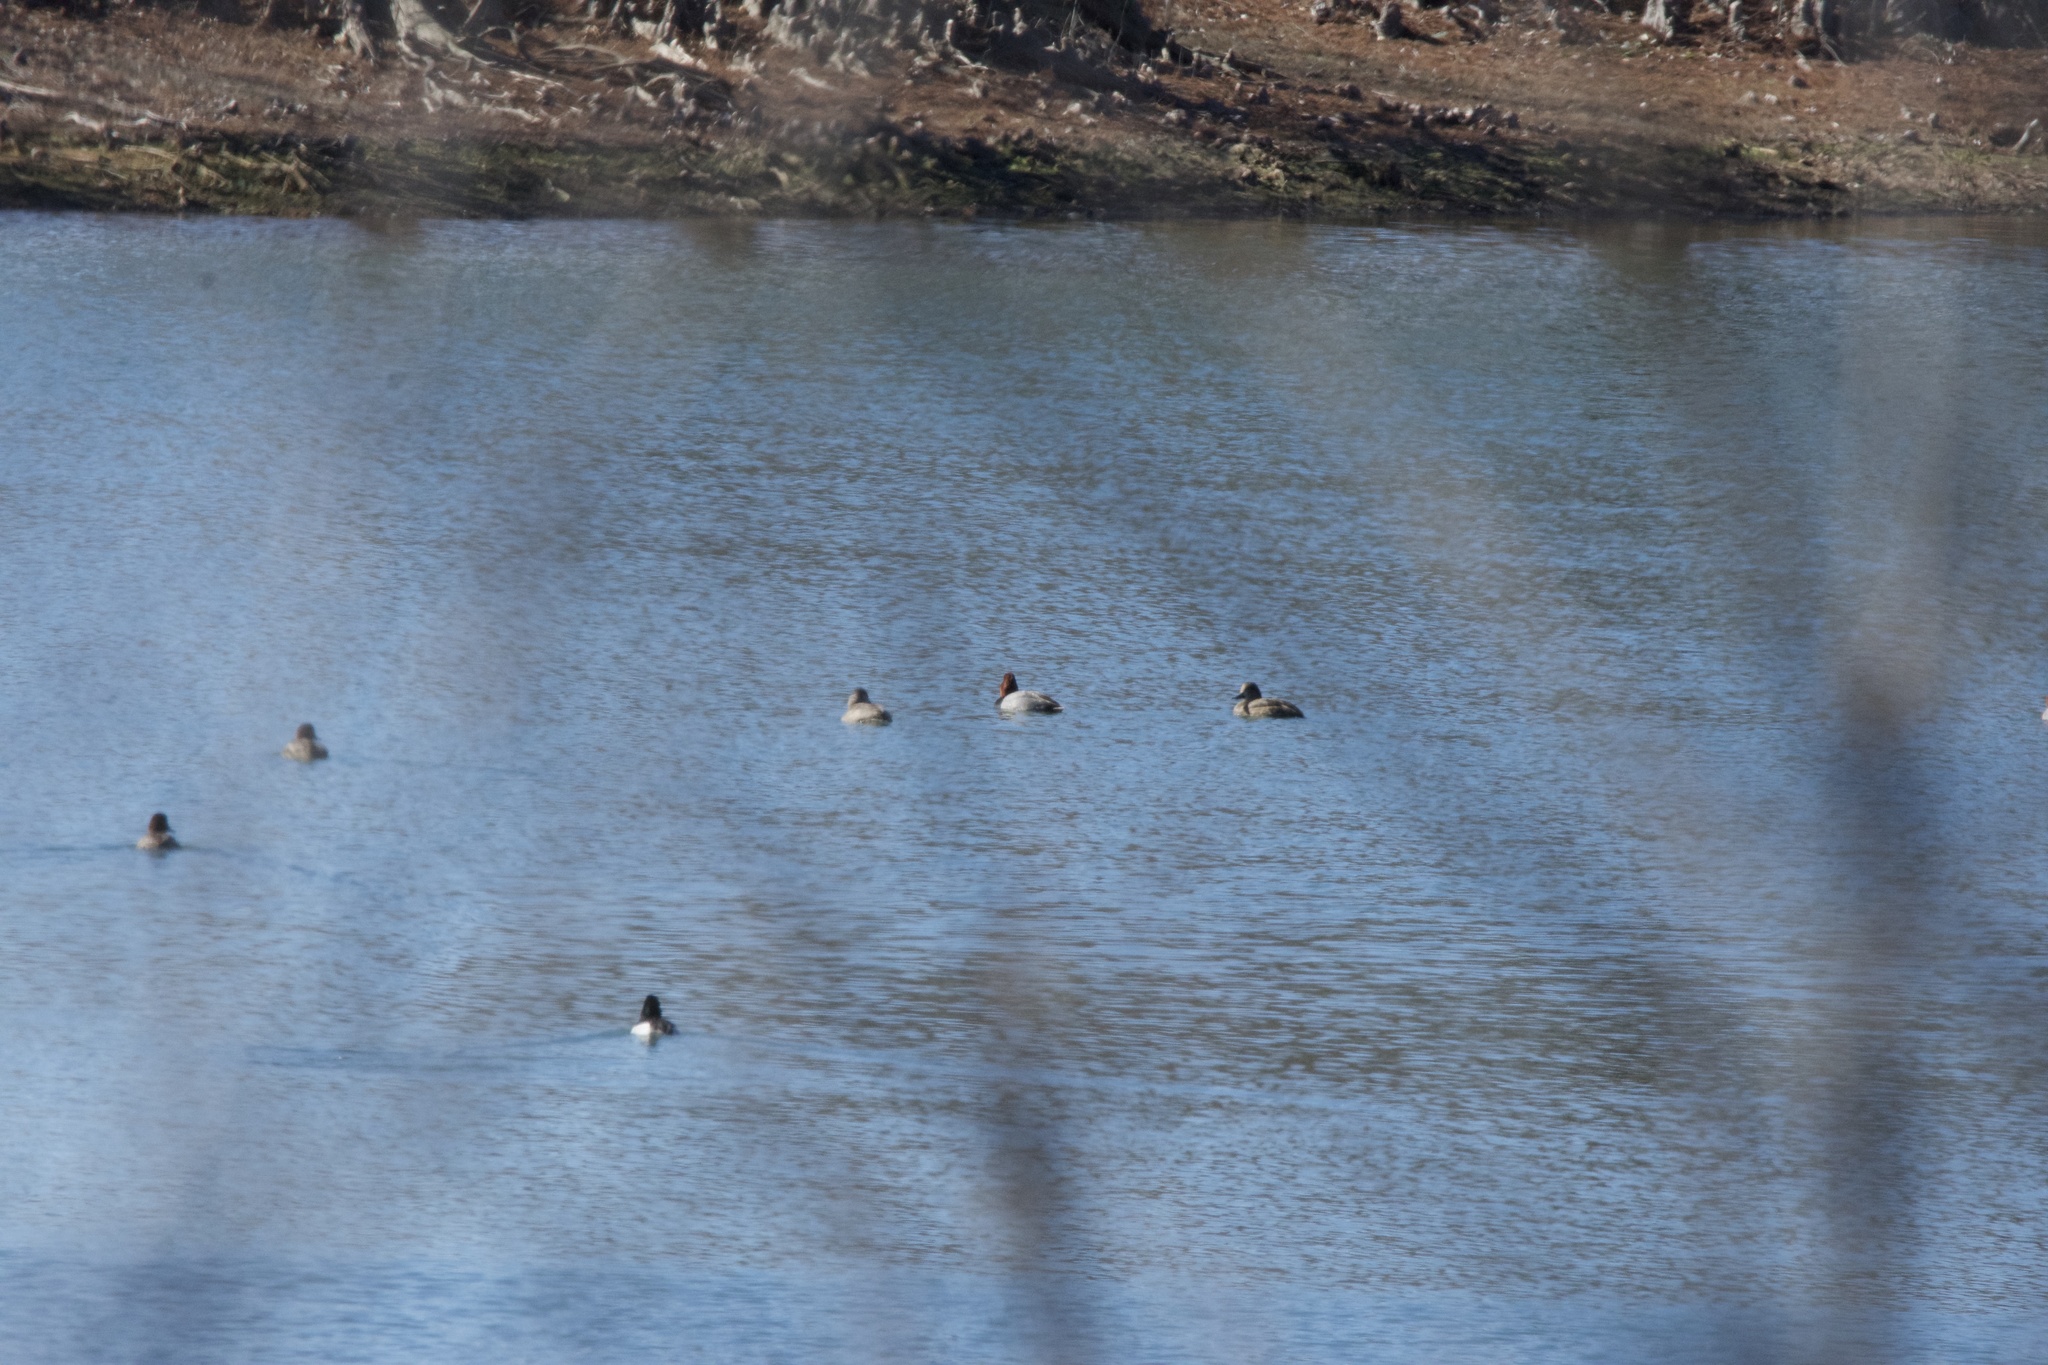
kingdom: Animalia
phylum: Chordata
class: Aves
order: Anseriformes
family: Anatidae
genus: Aythya
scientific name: Aythya americana
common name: Redhead
